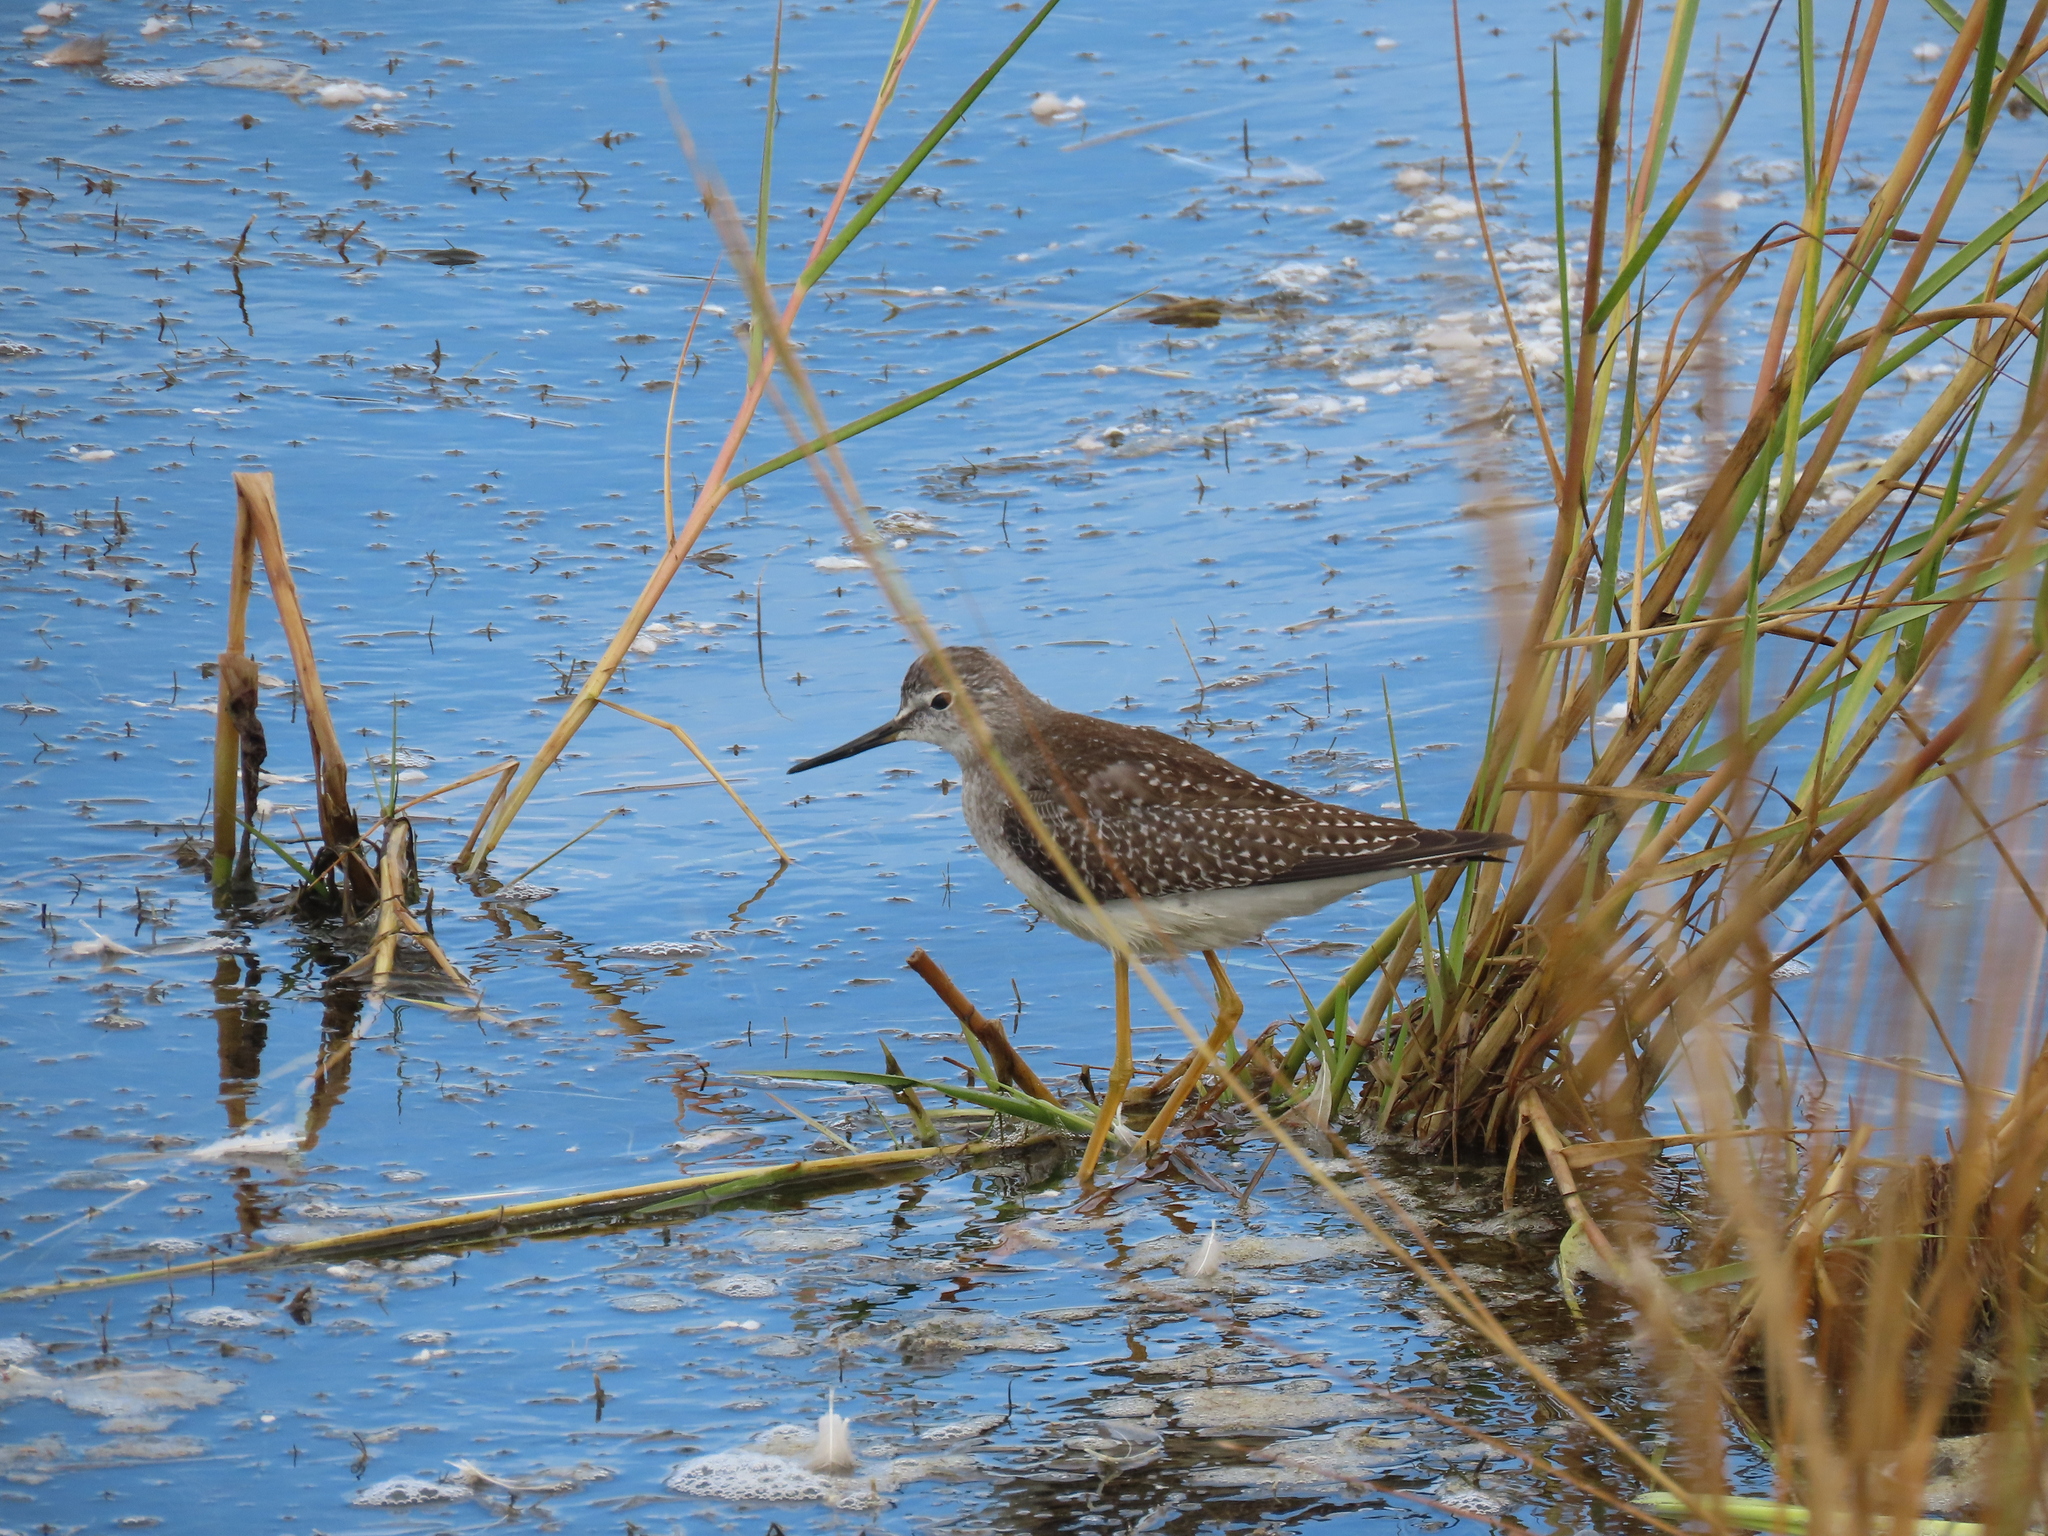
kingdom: Animalia
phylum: Chordata
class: Aves
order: Charadriiformes
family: Scolopacidae
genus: Tringa
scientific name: Tringa flavipes
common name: Lesser yellowlegs
